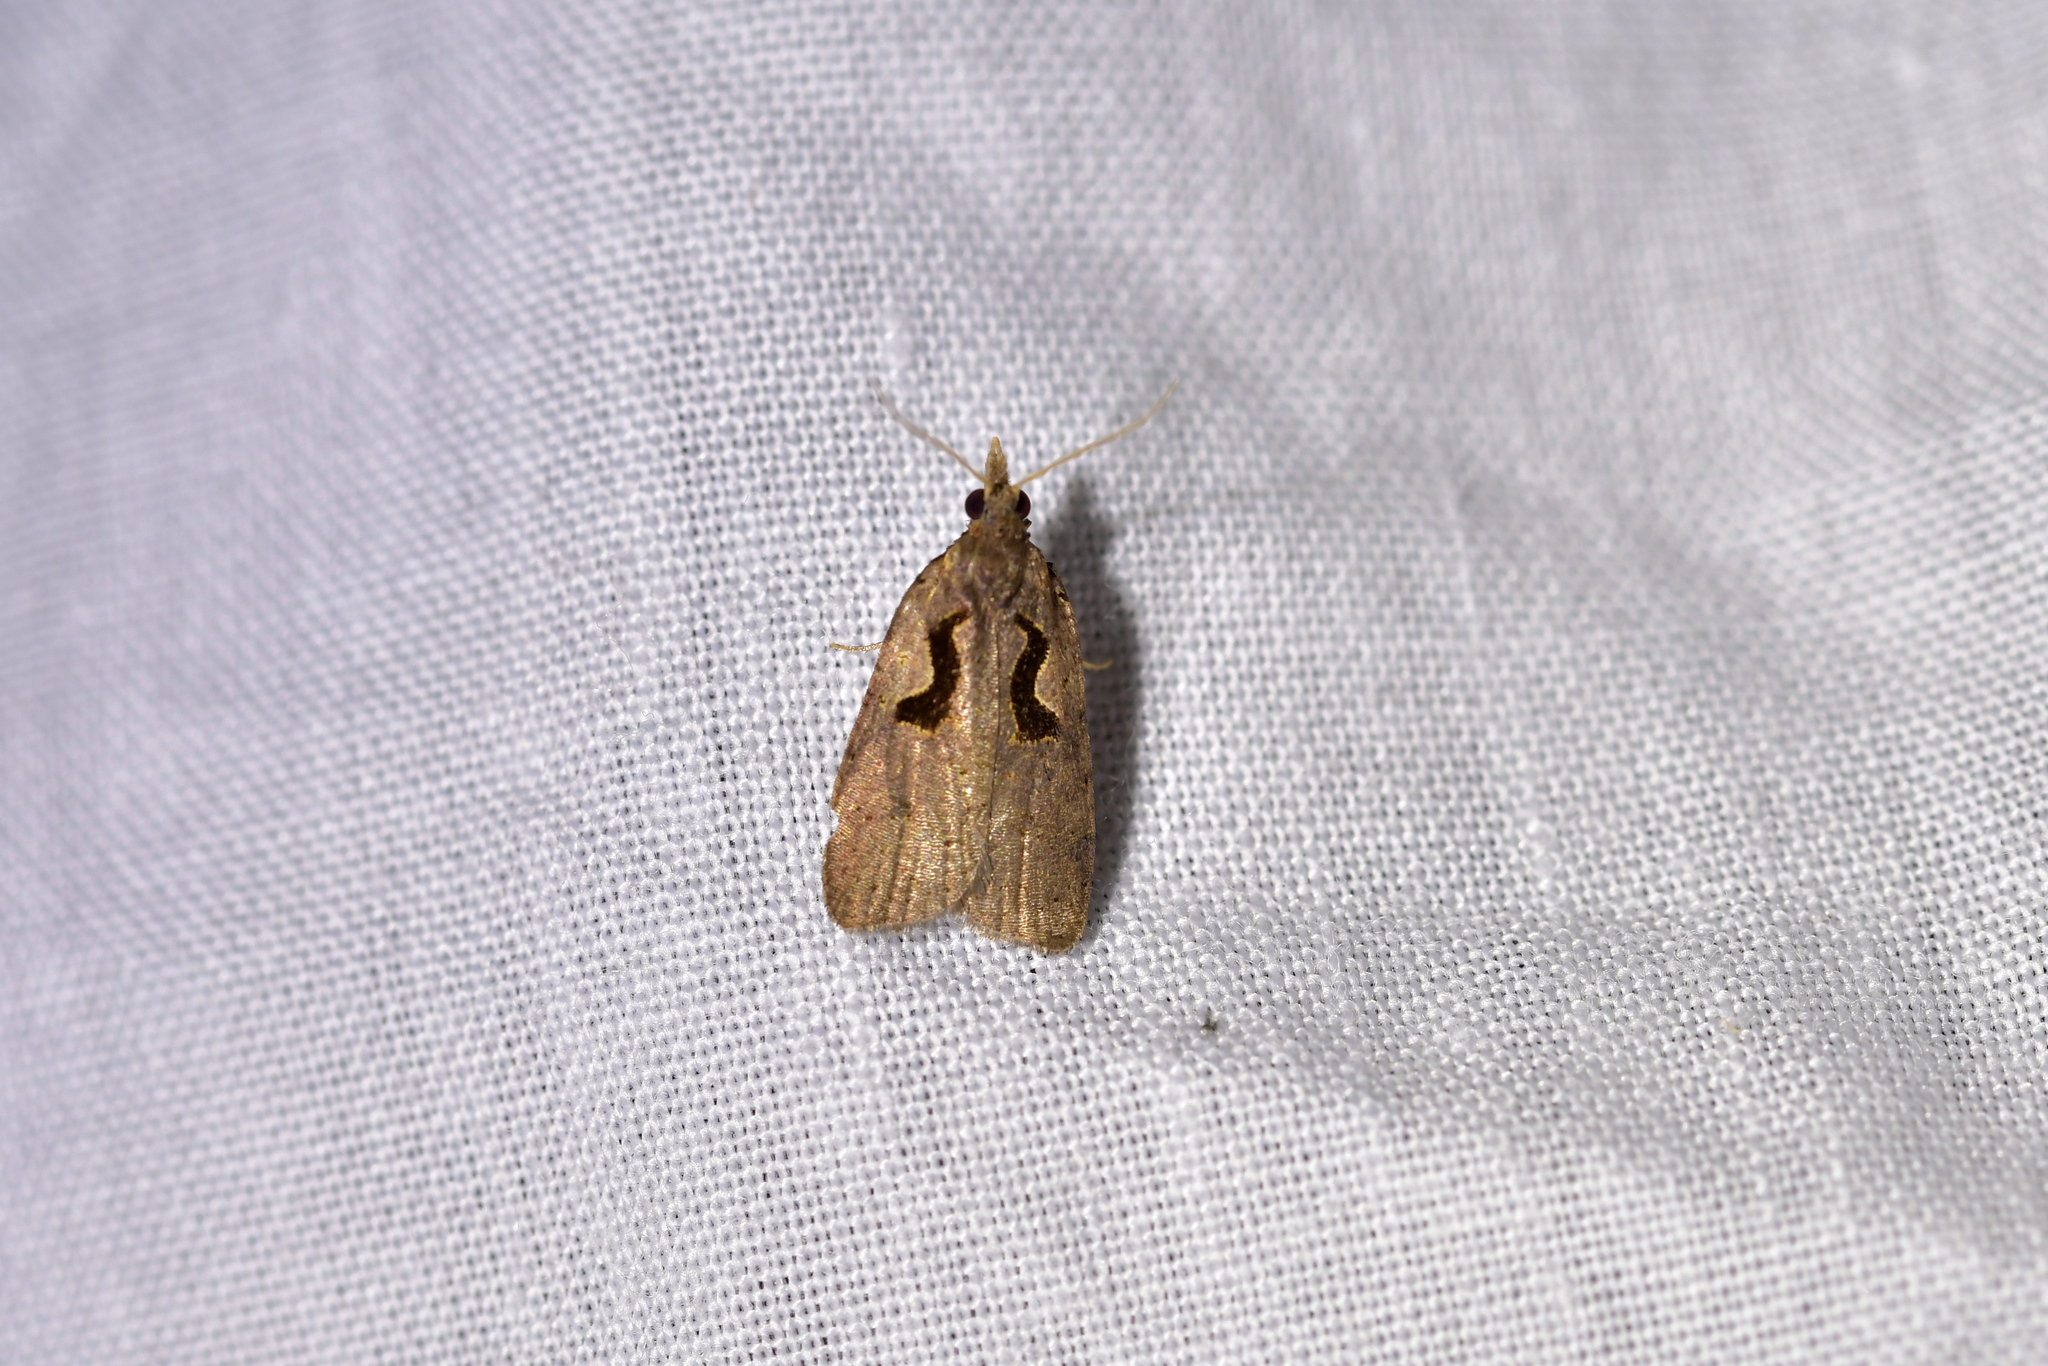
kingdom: Animalia
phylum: Arthropoda
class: Insecta
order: Lepidoptera
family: Tortricidae
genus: Cnephasia
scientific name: Cnephasia jactatana
